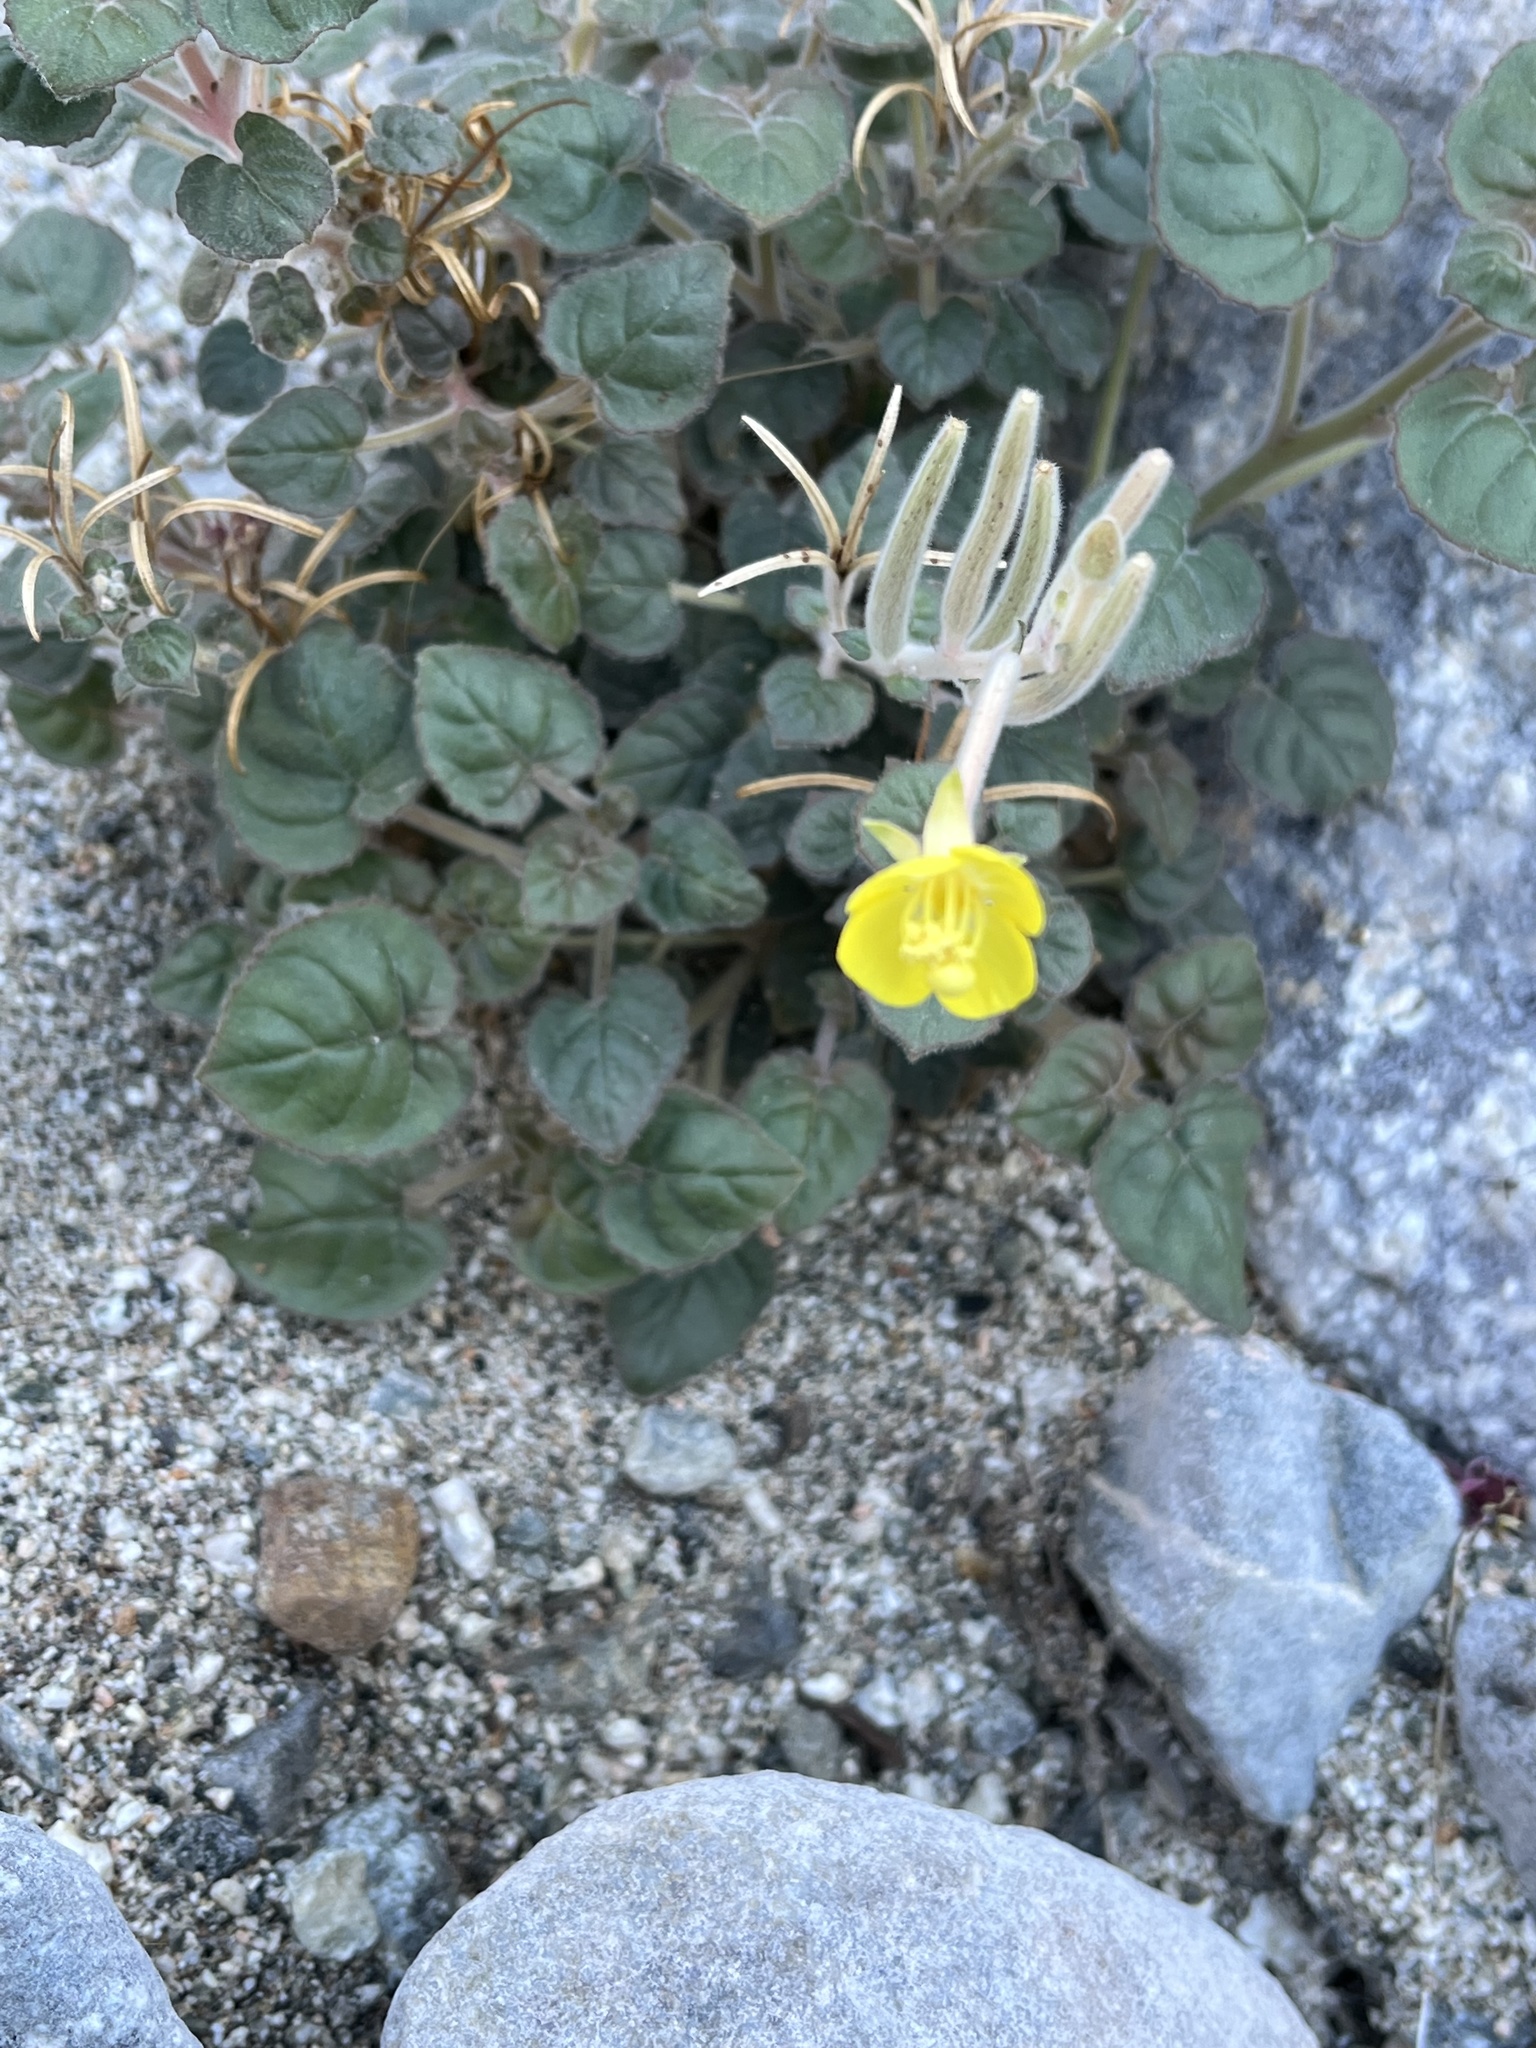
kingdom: Plantae
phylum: Tracheophyta
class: Magnoliopsida
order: Myrtales
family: Onagraceae
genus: Chylismia
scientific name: Chylismia cardiophylla
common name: Heartleaf suncup
